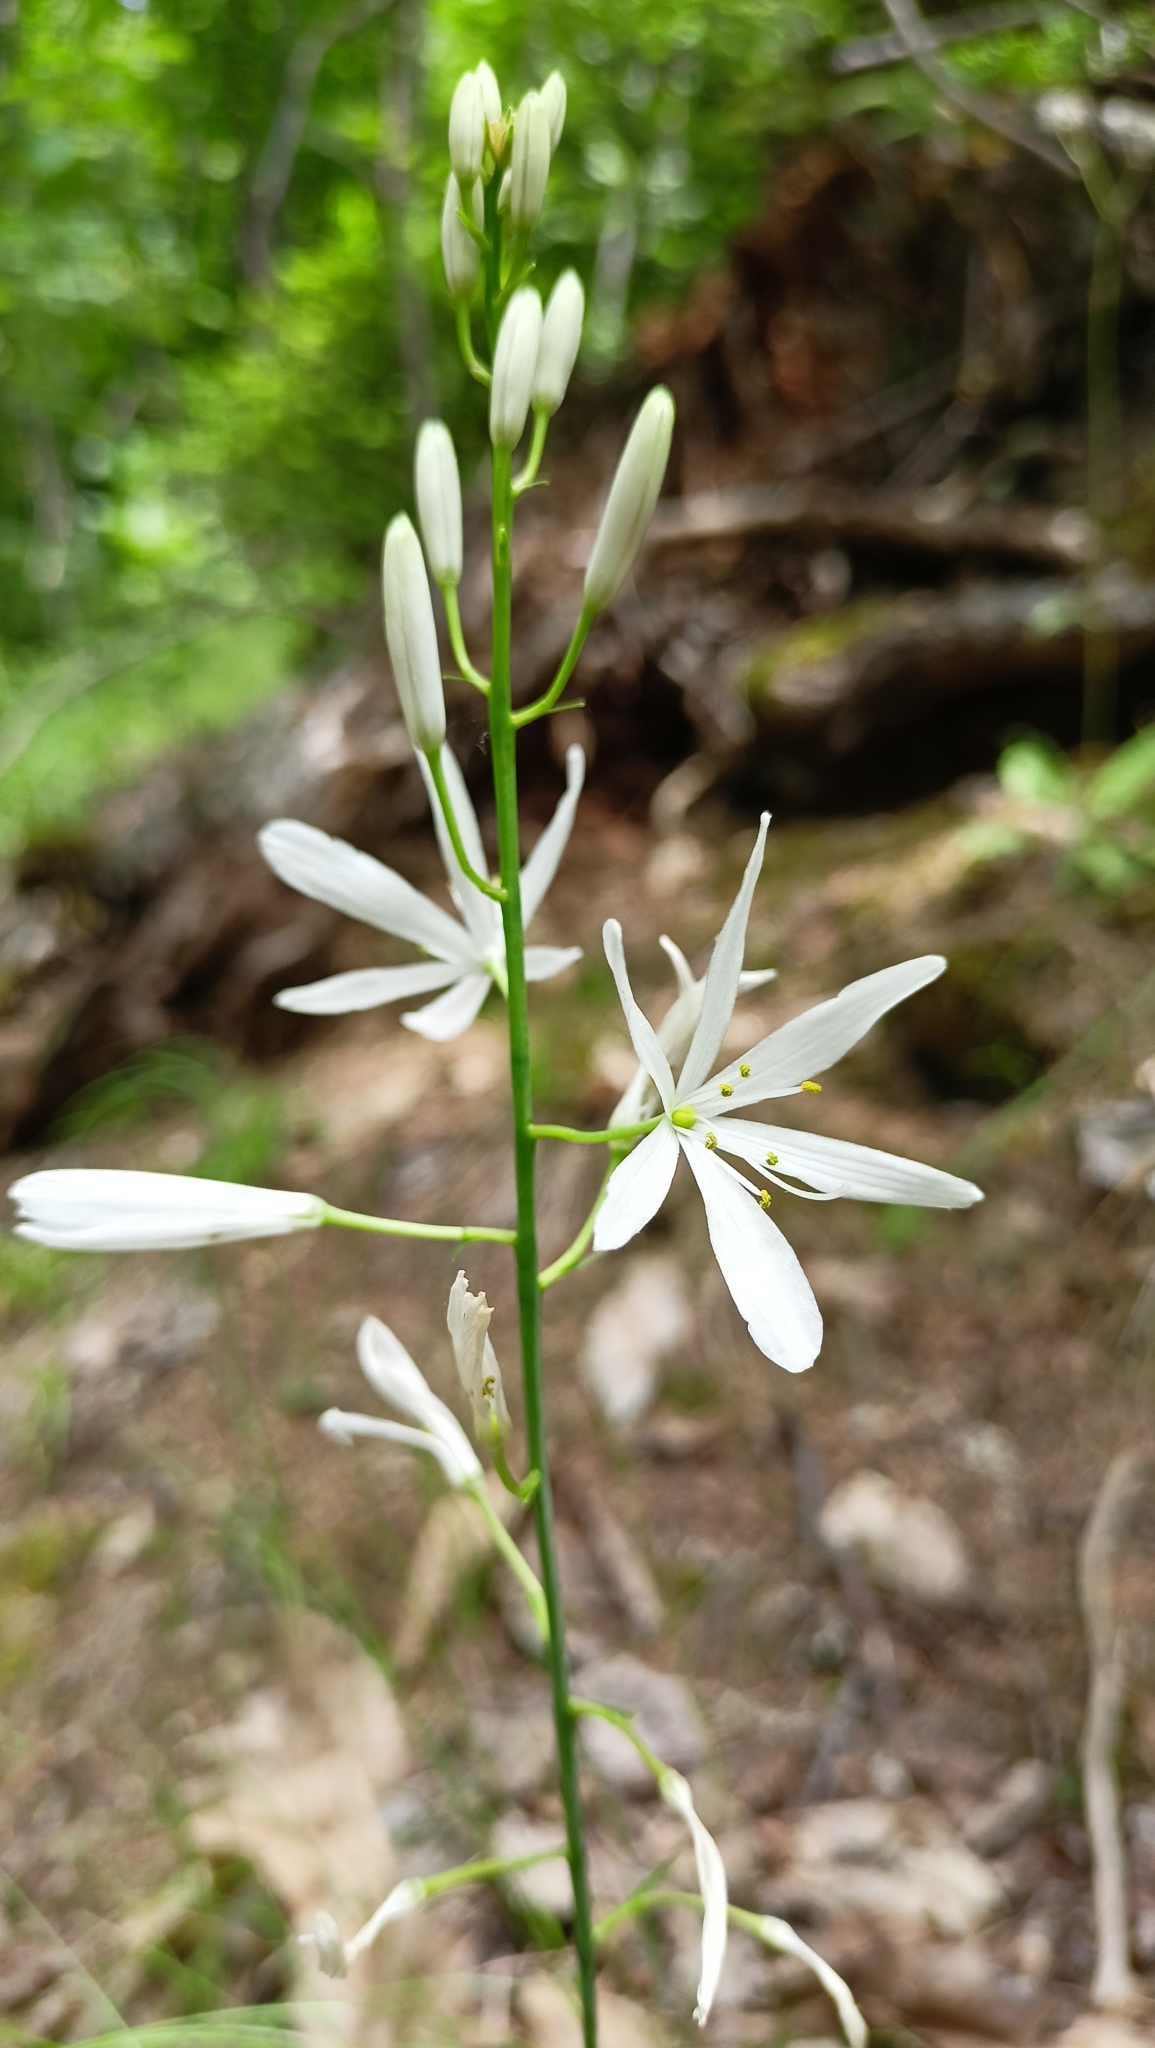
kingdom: Plantae
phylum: Tracheophyta
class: Liliopsida
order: Asparagales
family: Asparagaceae
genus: Anthericum
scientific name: Anthericum liliago
